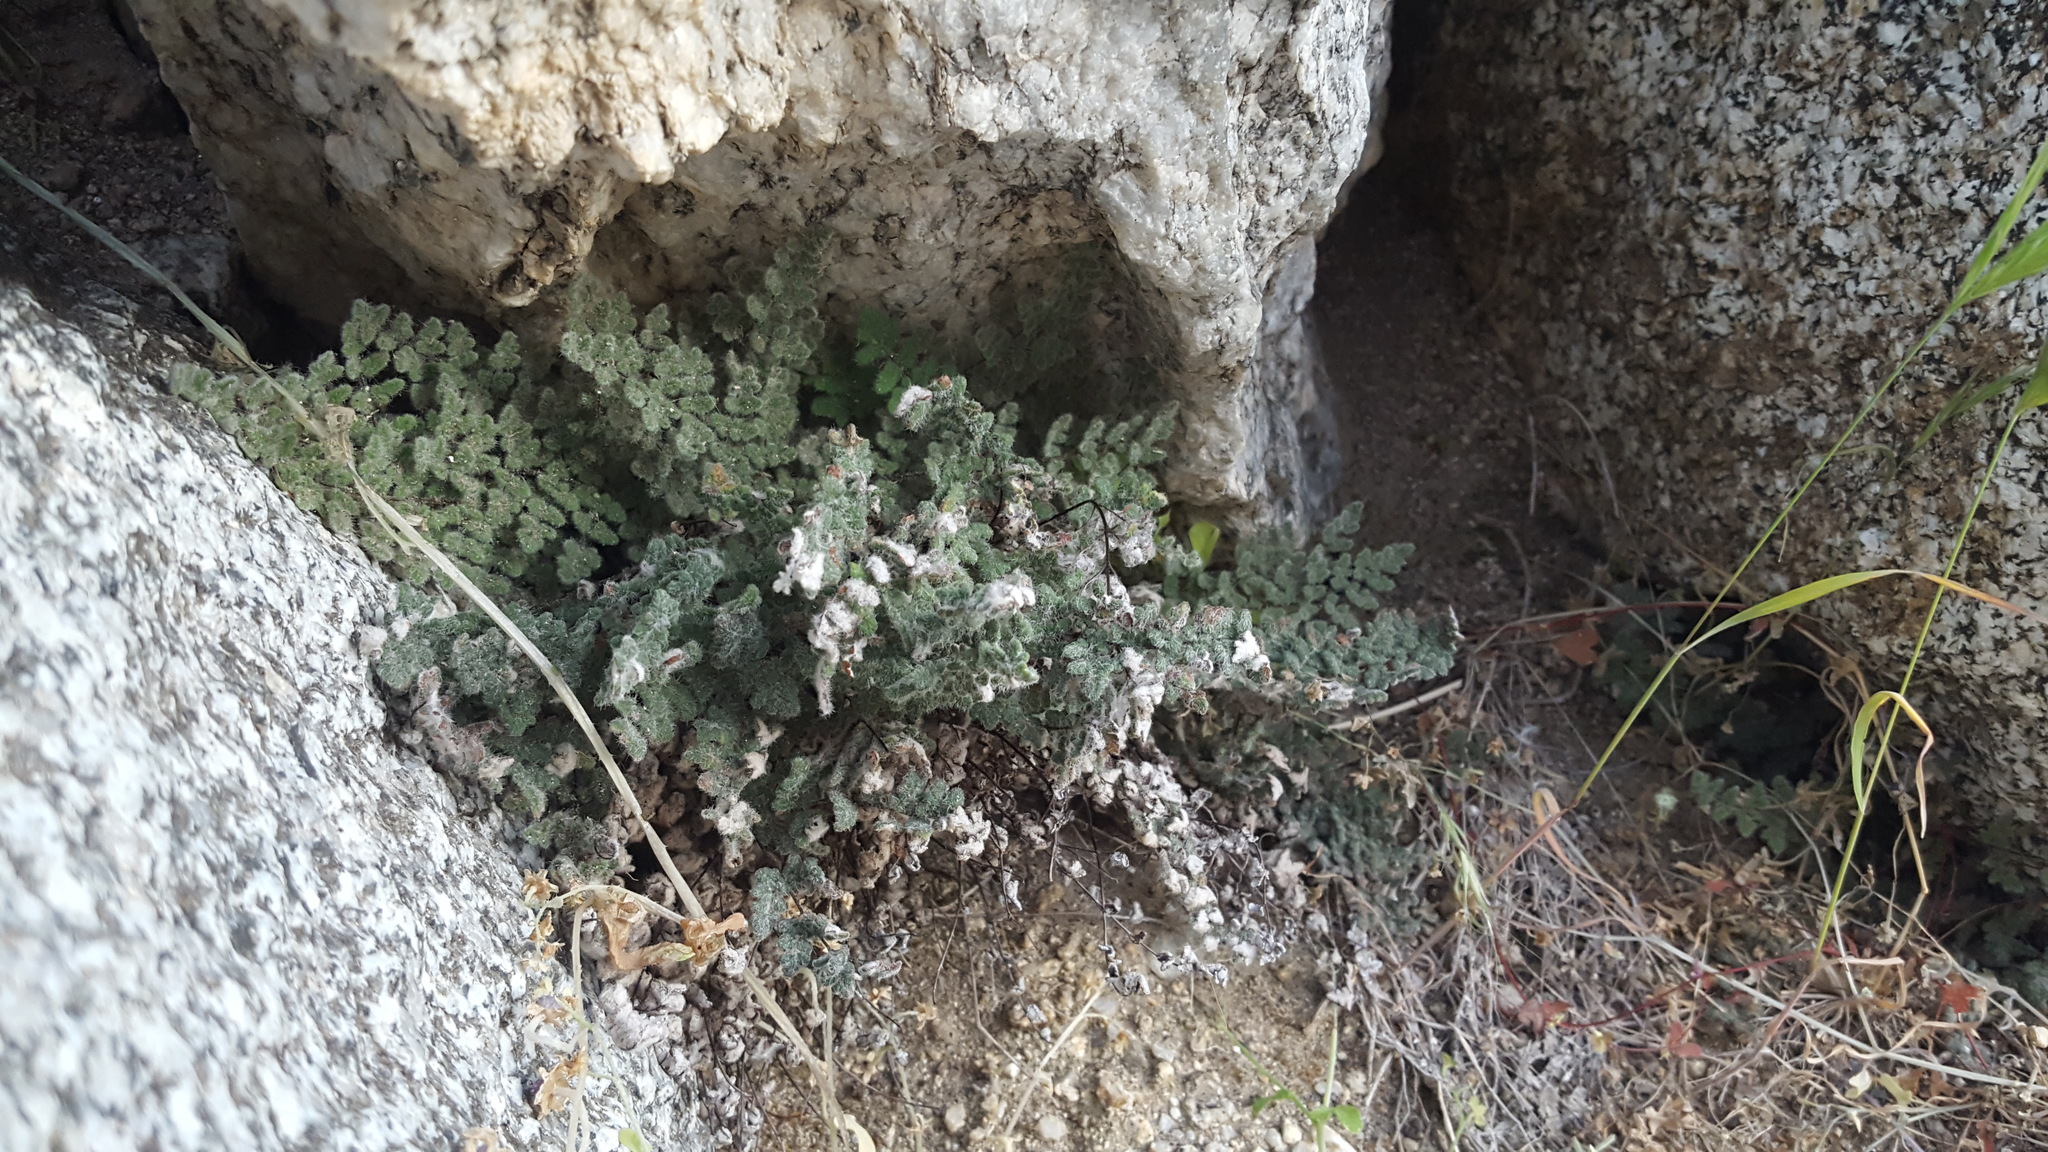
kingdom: Plantae
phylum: Tracheophyta
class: Polypodiopsida
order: Polypodiales
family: Pteridaceae
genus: Myriopteris
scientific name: Myriopteris parryi
